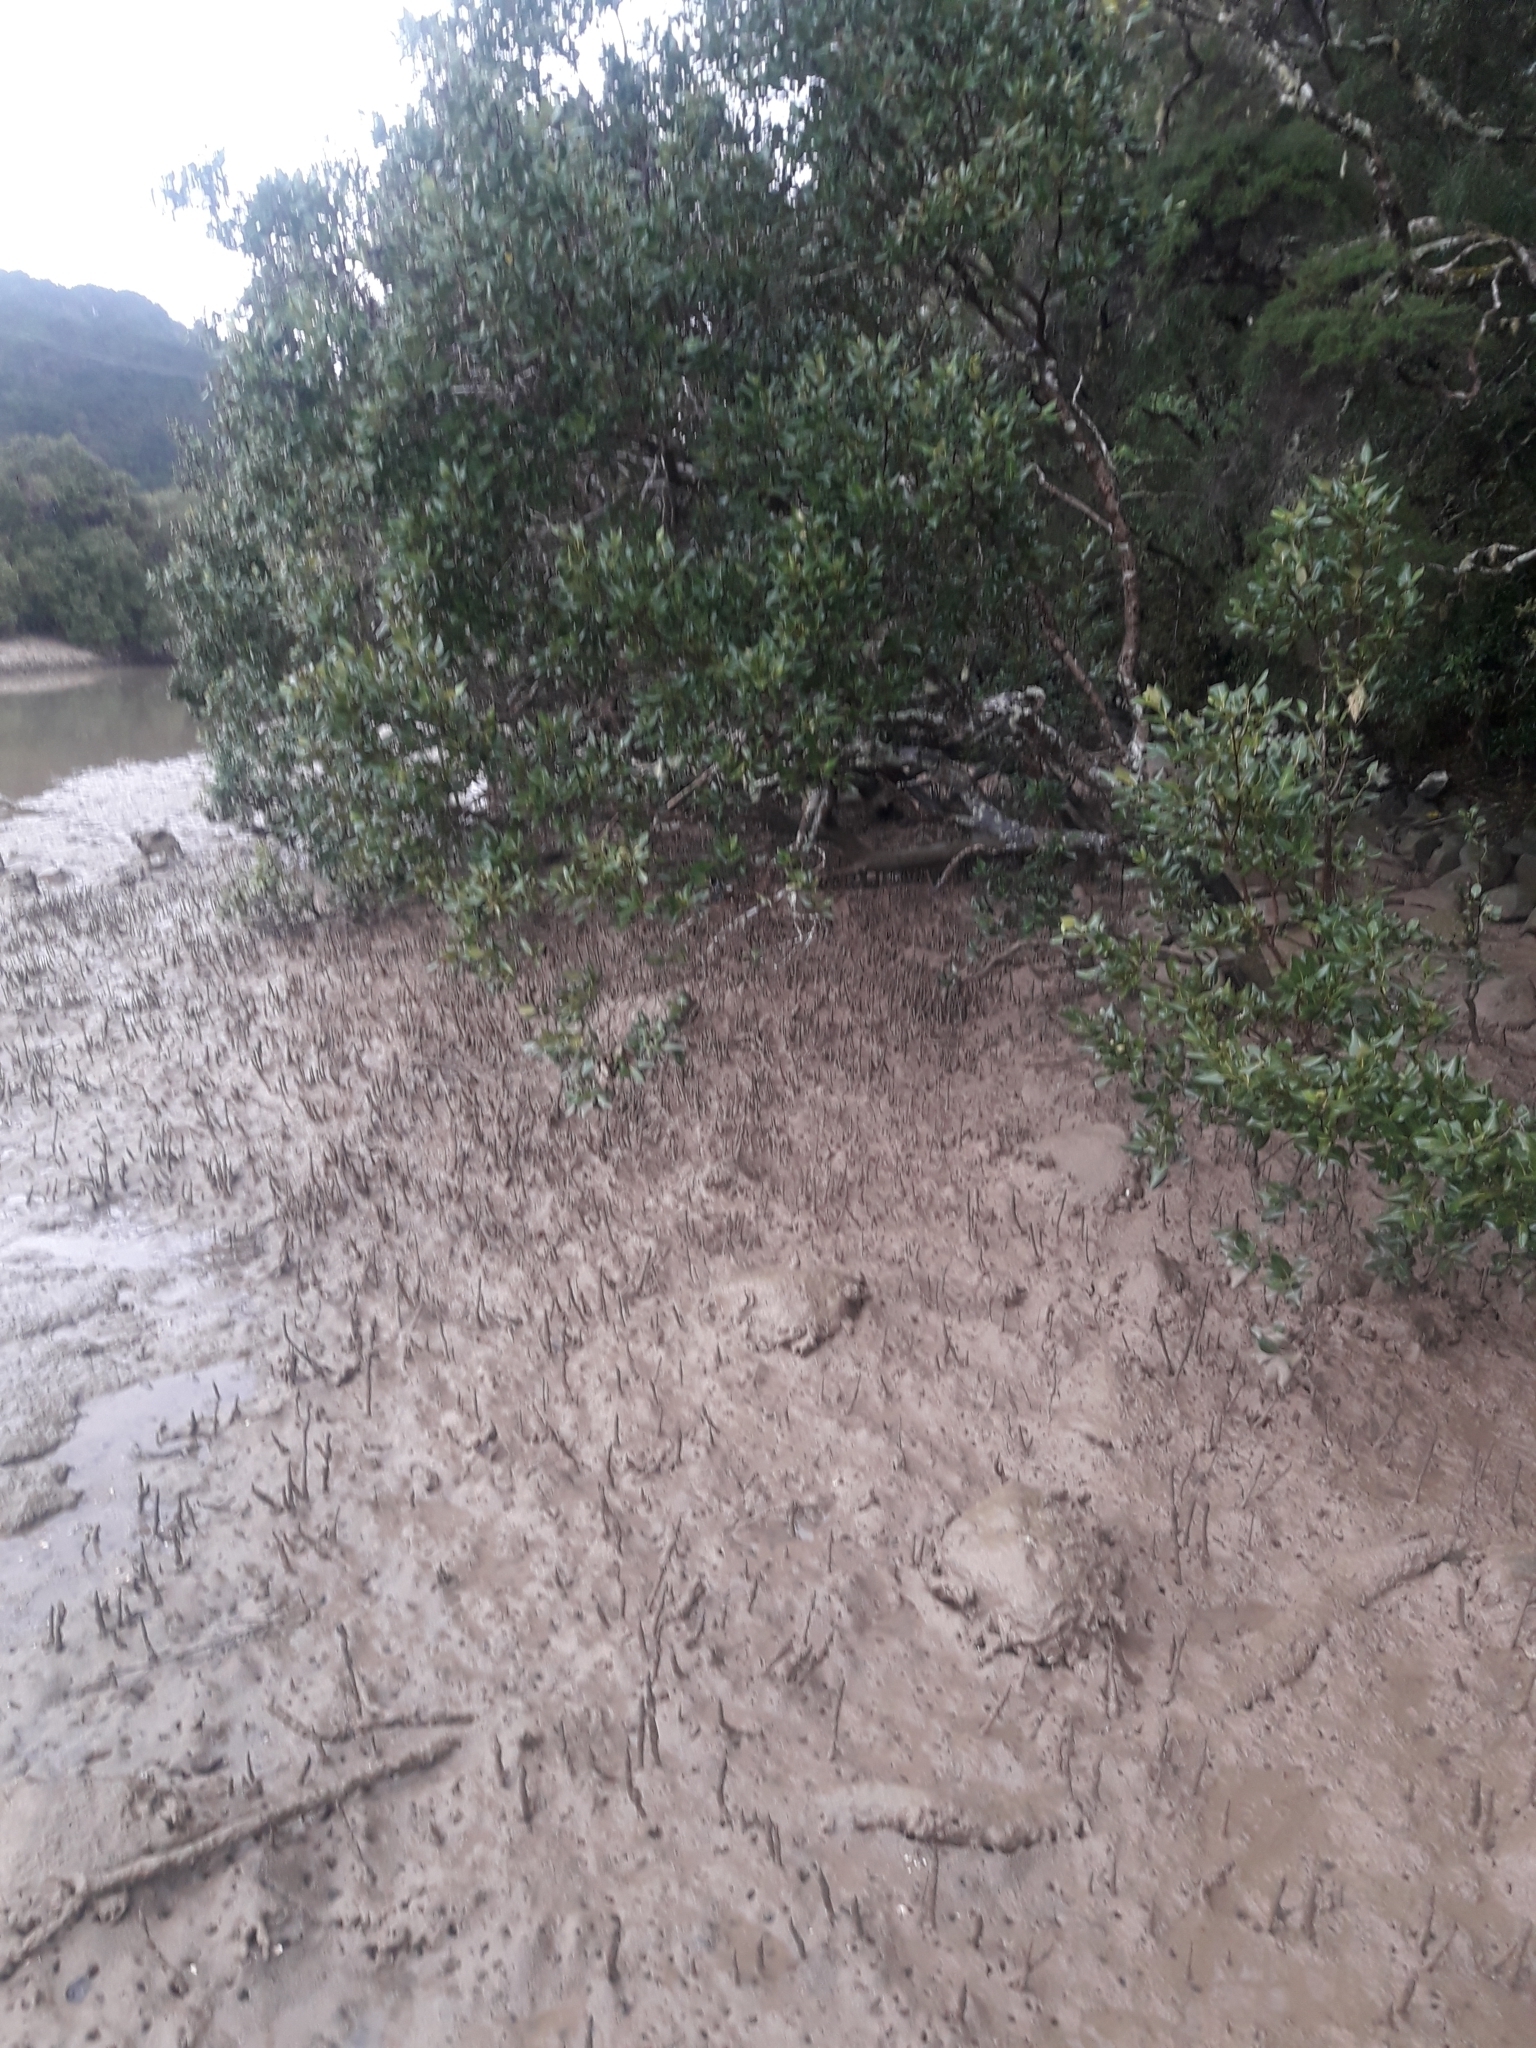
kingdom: Plantae
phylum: Tracheophyta
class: Magnoliopsida
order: Lamiales
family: Acanthaceae
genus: Avicennia
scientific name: Avicennia marina
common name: Gray mangrove
